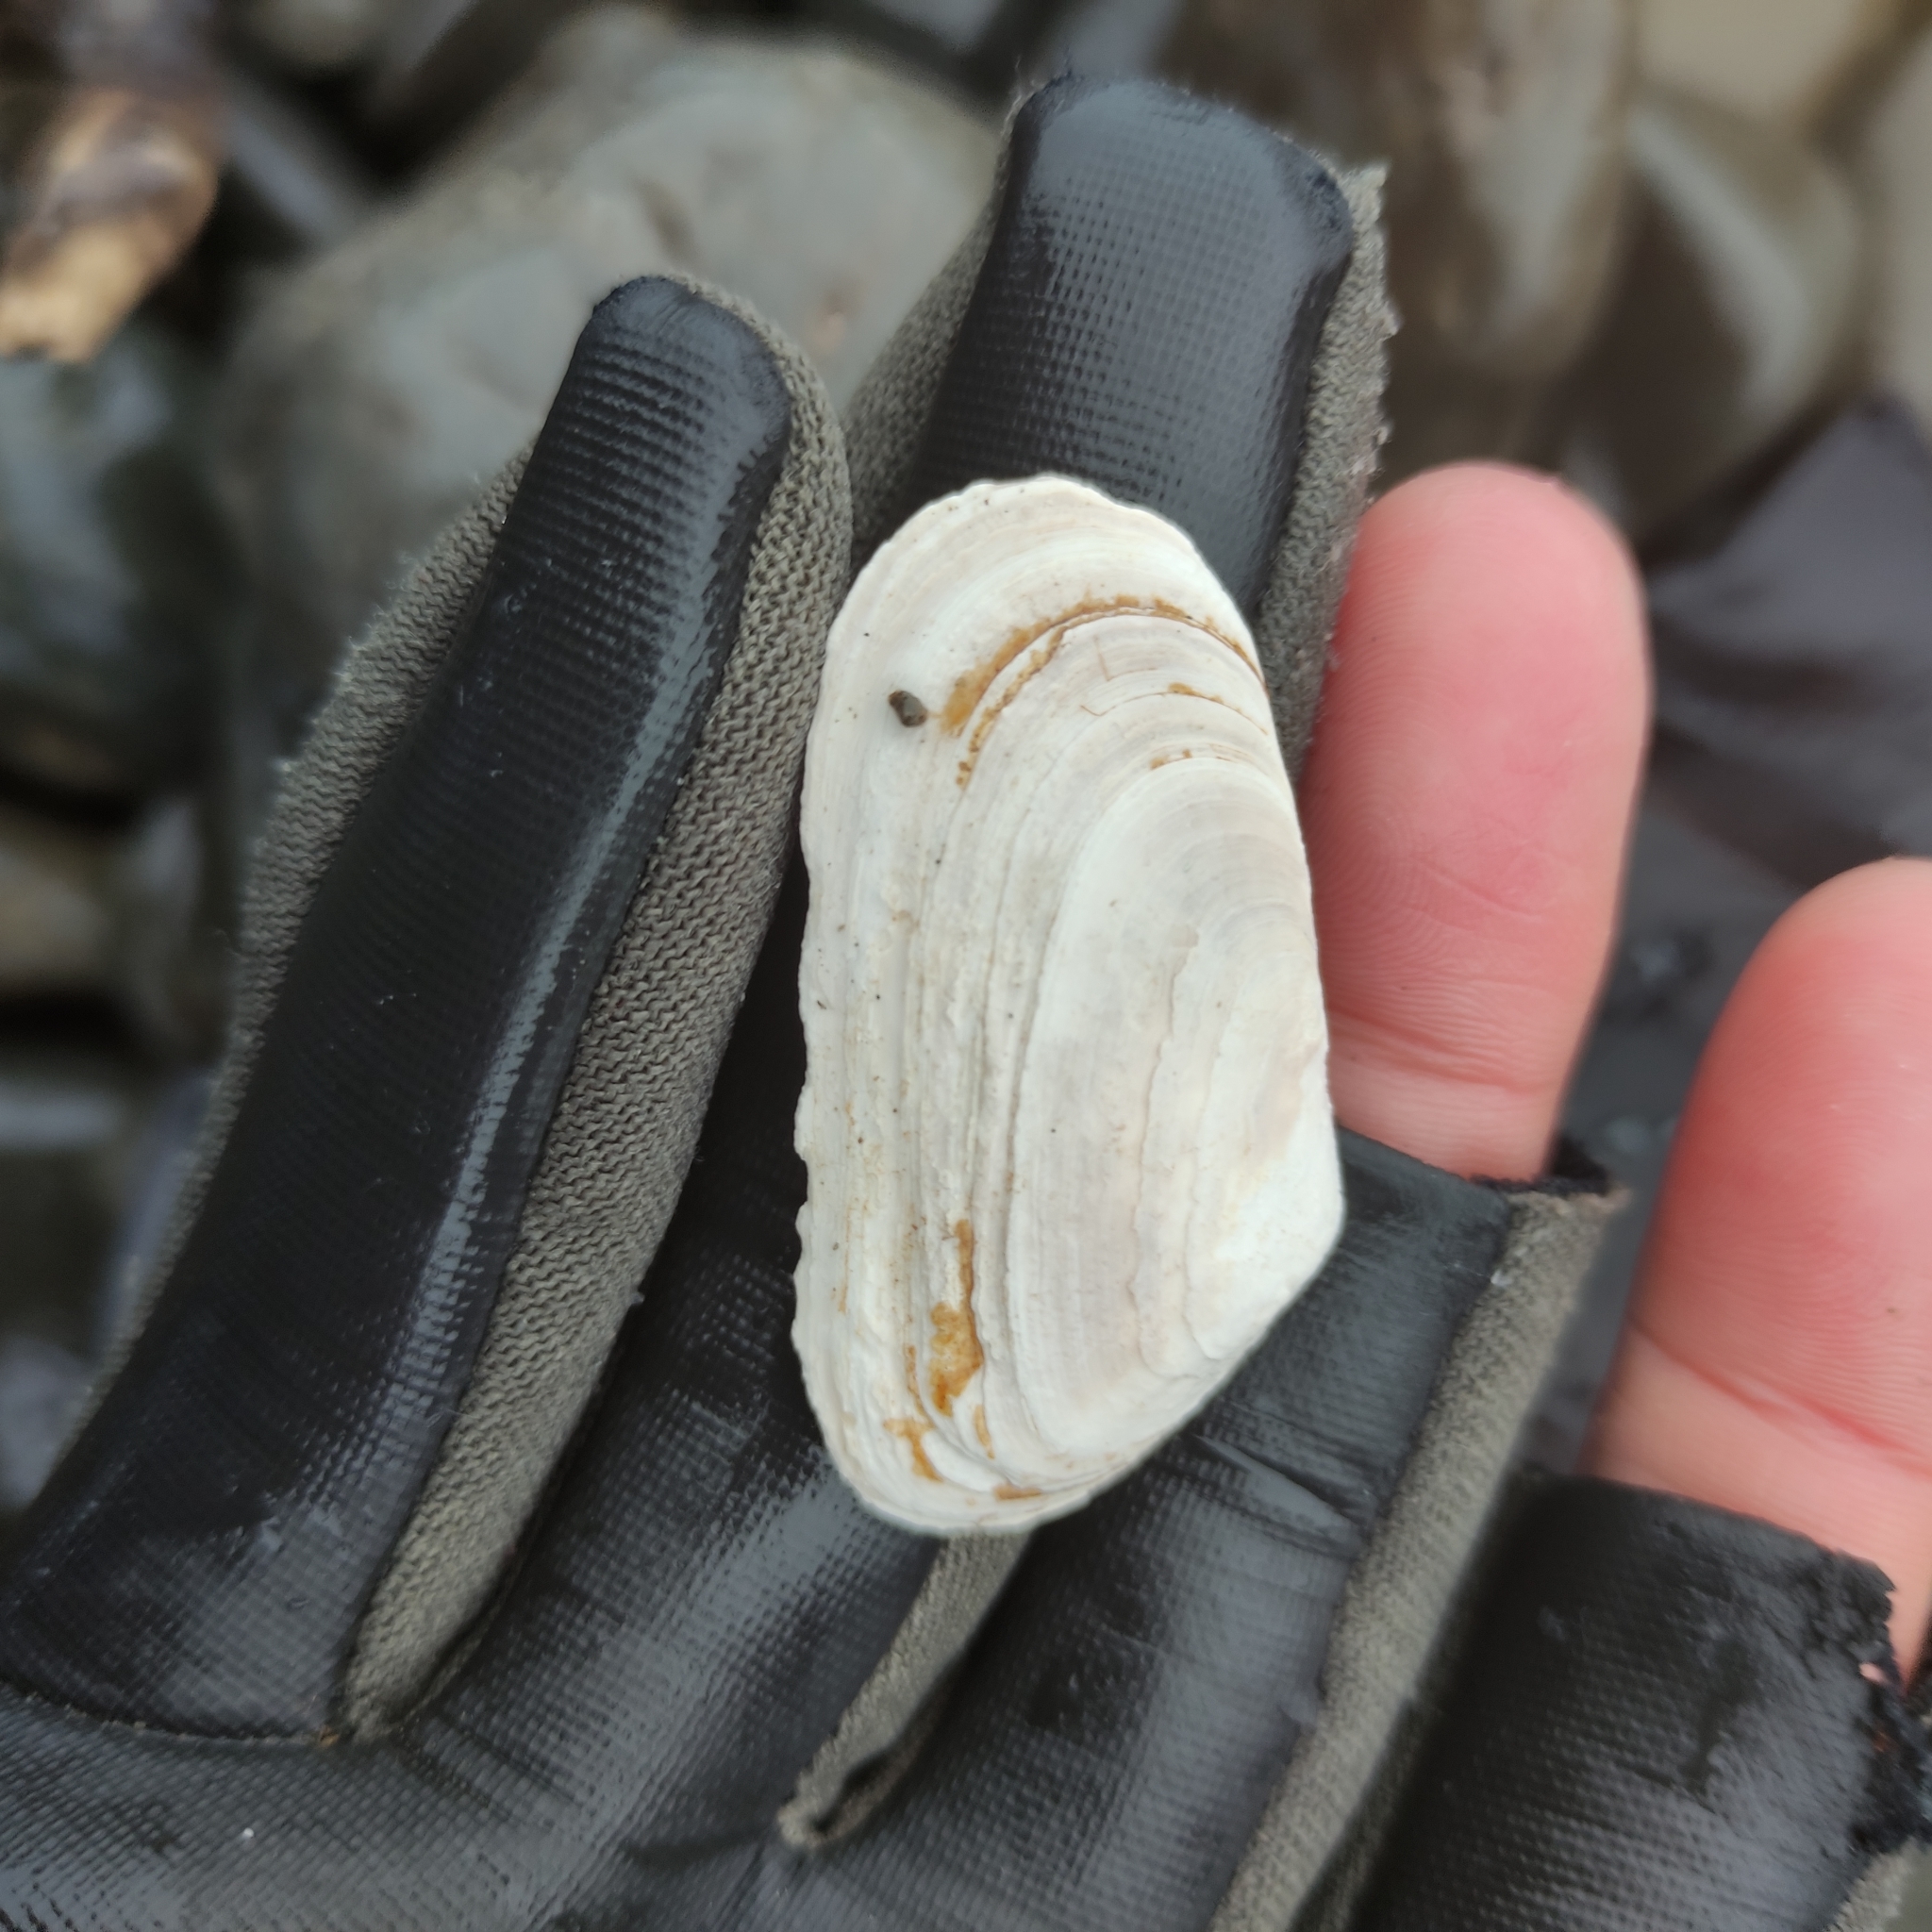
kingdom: Animalia
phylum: Mollusca
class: Bivalvia
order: Venerida
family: Mesodesmatidae
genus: Paphies
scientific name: Paphies subtriangulata
